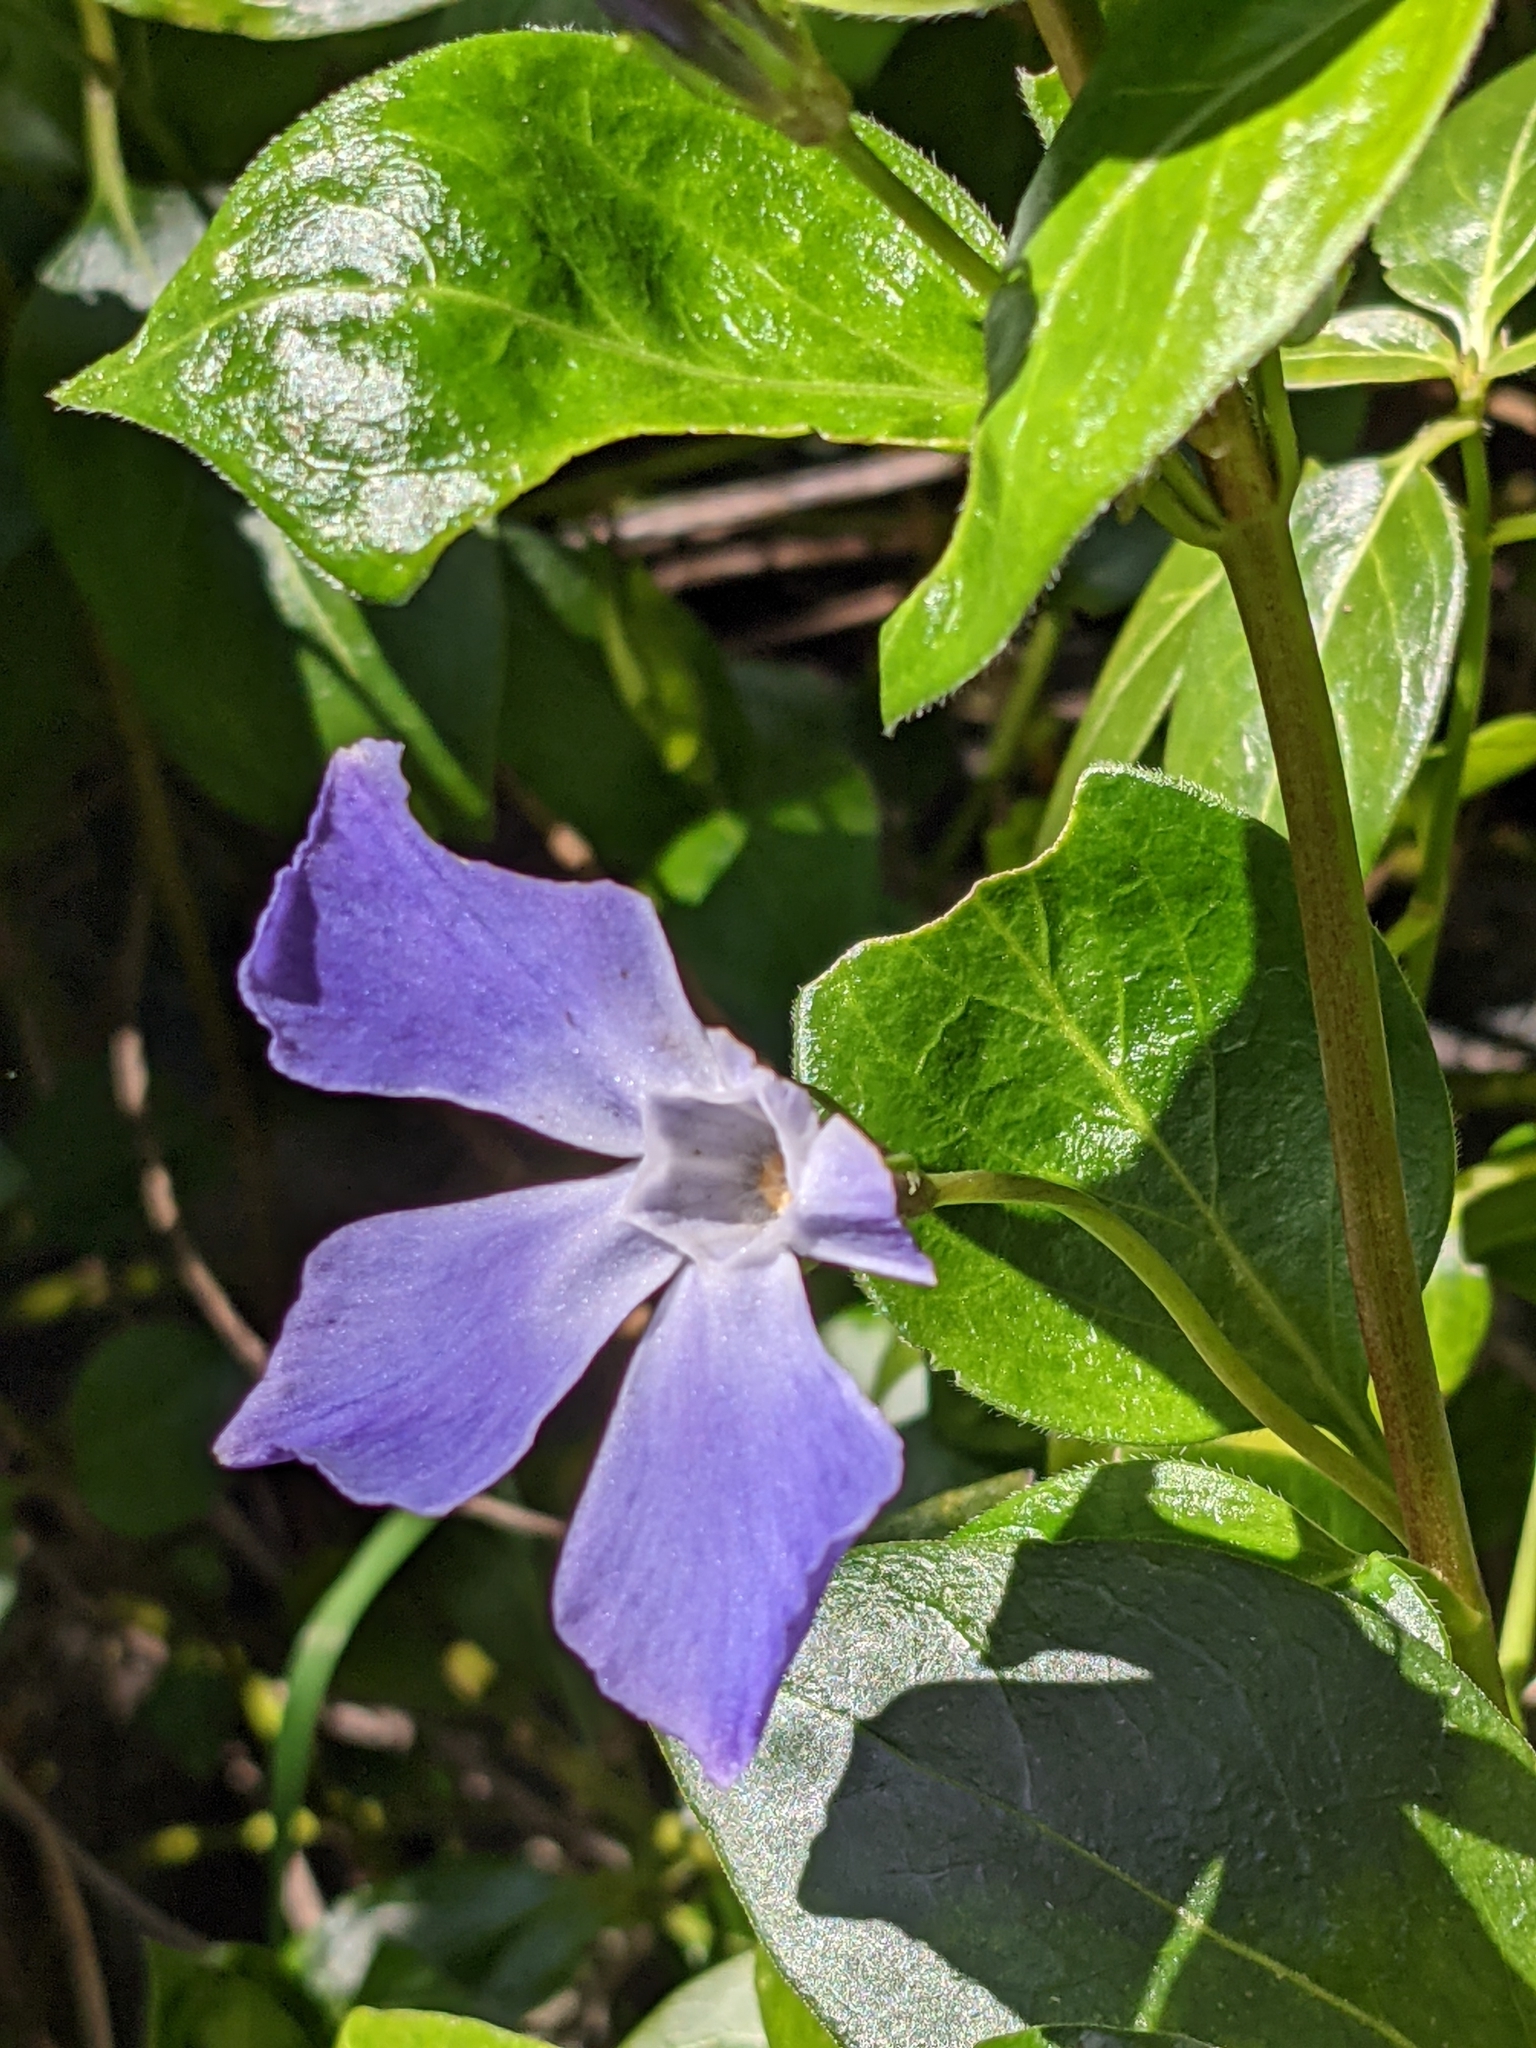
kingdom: Plantae
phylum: Tracheophyta
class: Magnoliopsida
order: Gentianales
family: Apocynaceae
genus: Vinca
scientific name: Vinca major
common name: Greater periwinkle
